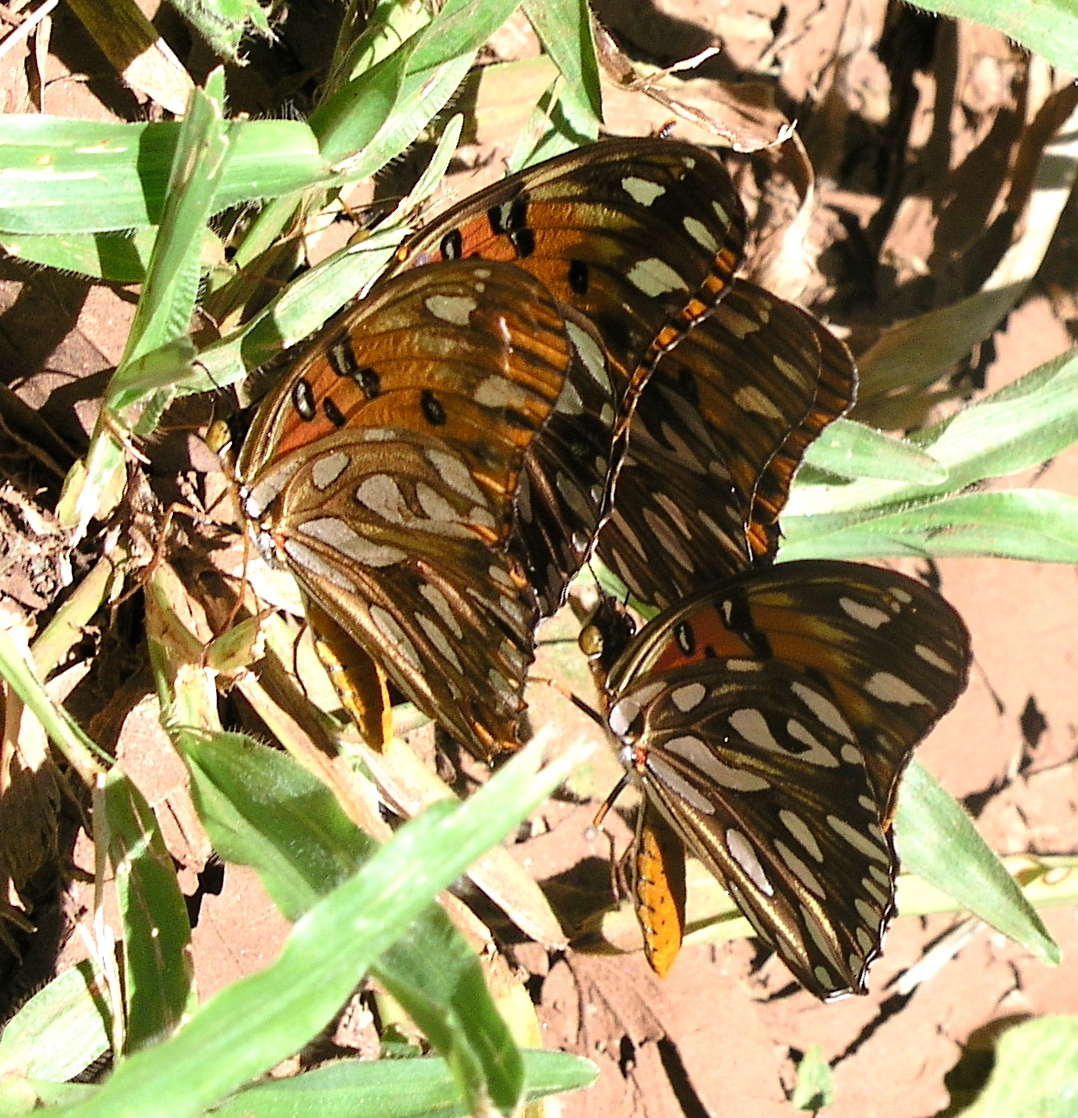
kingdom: Animalia
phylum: Arthropoda
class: Insecta
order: Lepidoptera
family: Nymphalidae
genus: Dione
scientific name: Dione vanillae
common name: Gulf fritillary
